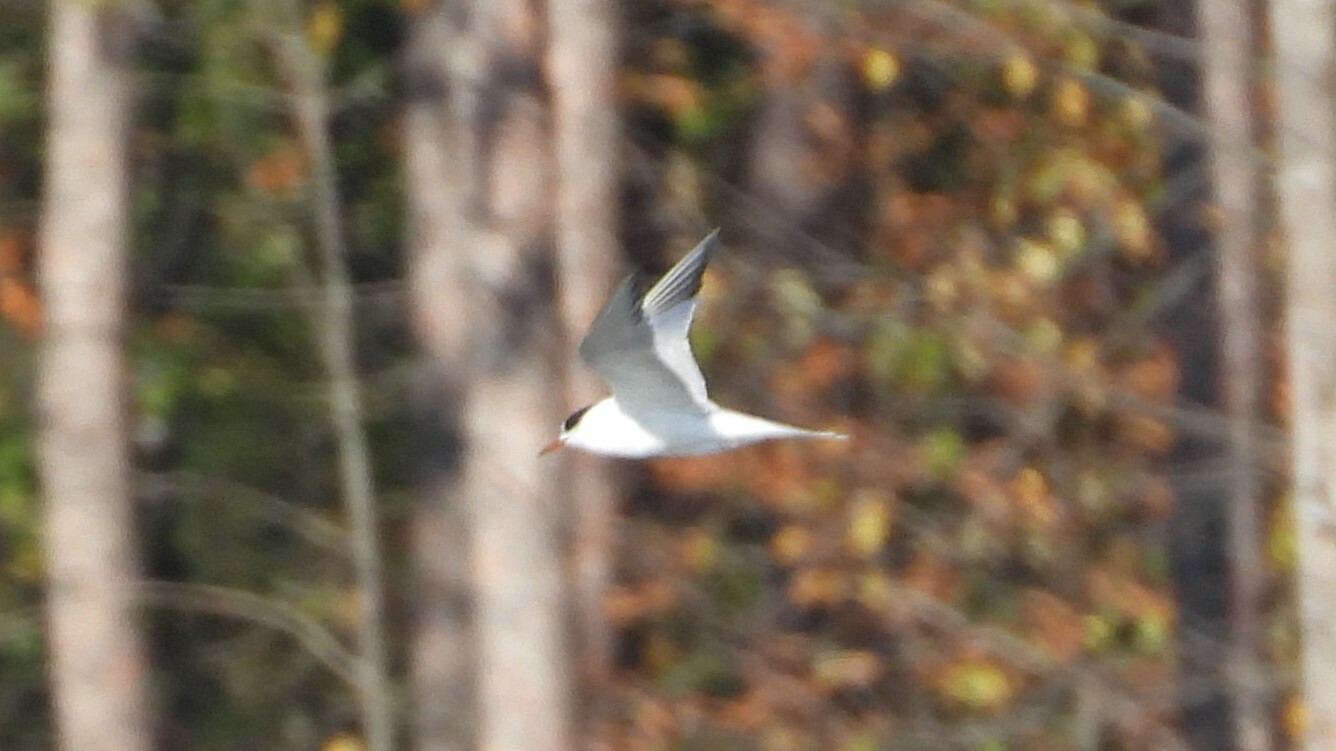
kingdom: Animalia
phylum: Chordata
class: Aves
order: Charadriiformes
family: Laridae
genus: Sterna
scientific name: Sterna hirundo
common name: Common tern
